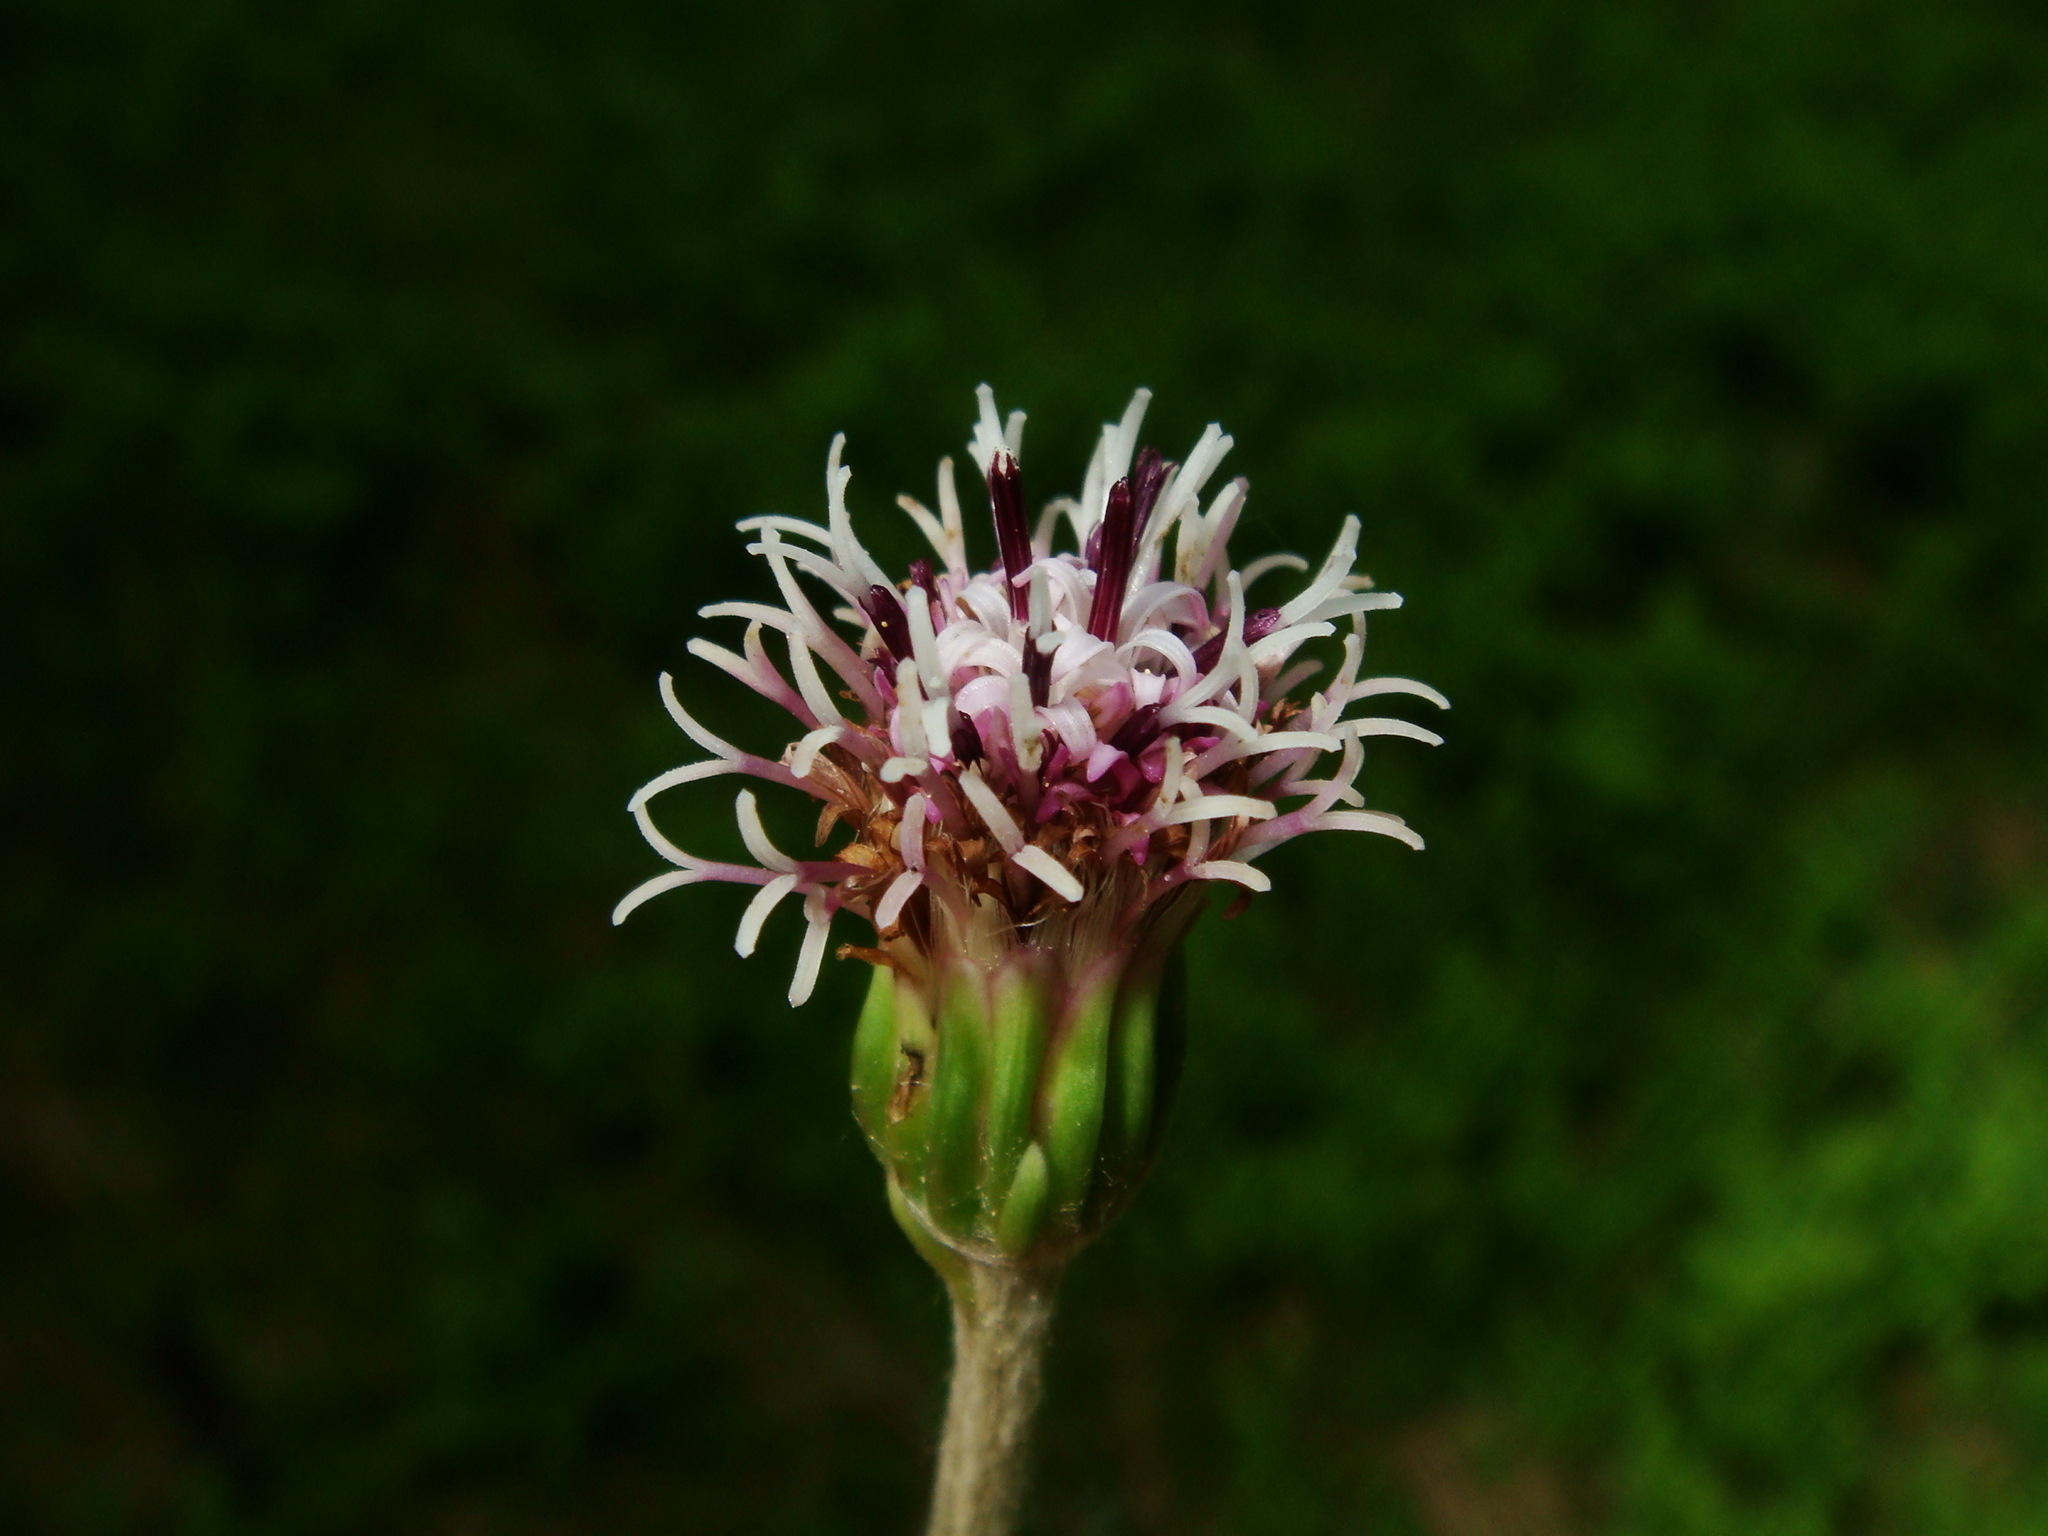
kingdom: Plantae
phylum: Tracheophyta
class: Magnoliopsida
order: Asterales
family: Asteraceae
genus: Homogyne
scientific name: Homogyne alpina
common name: Purple colt's-foot
